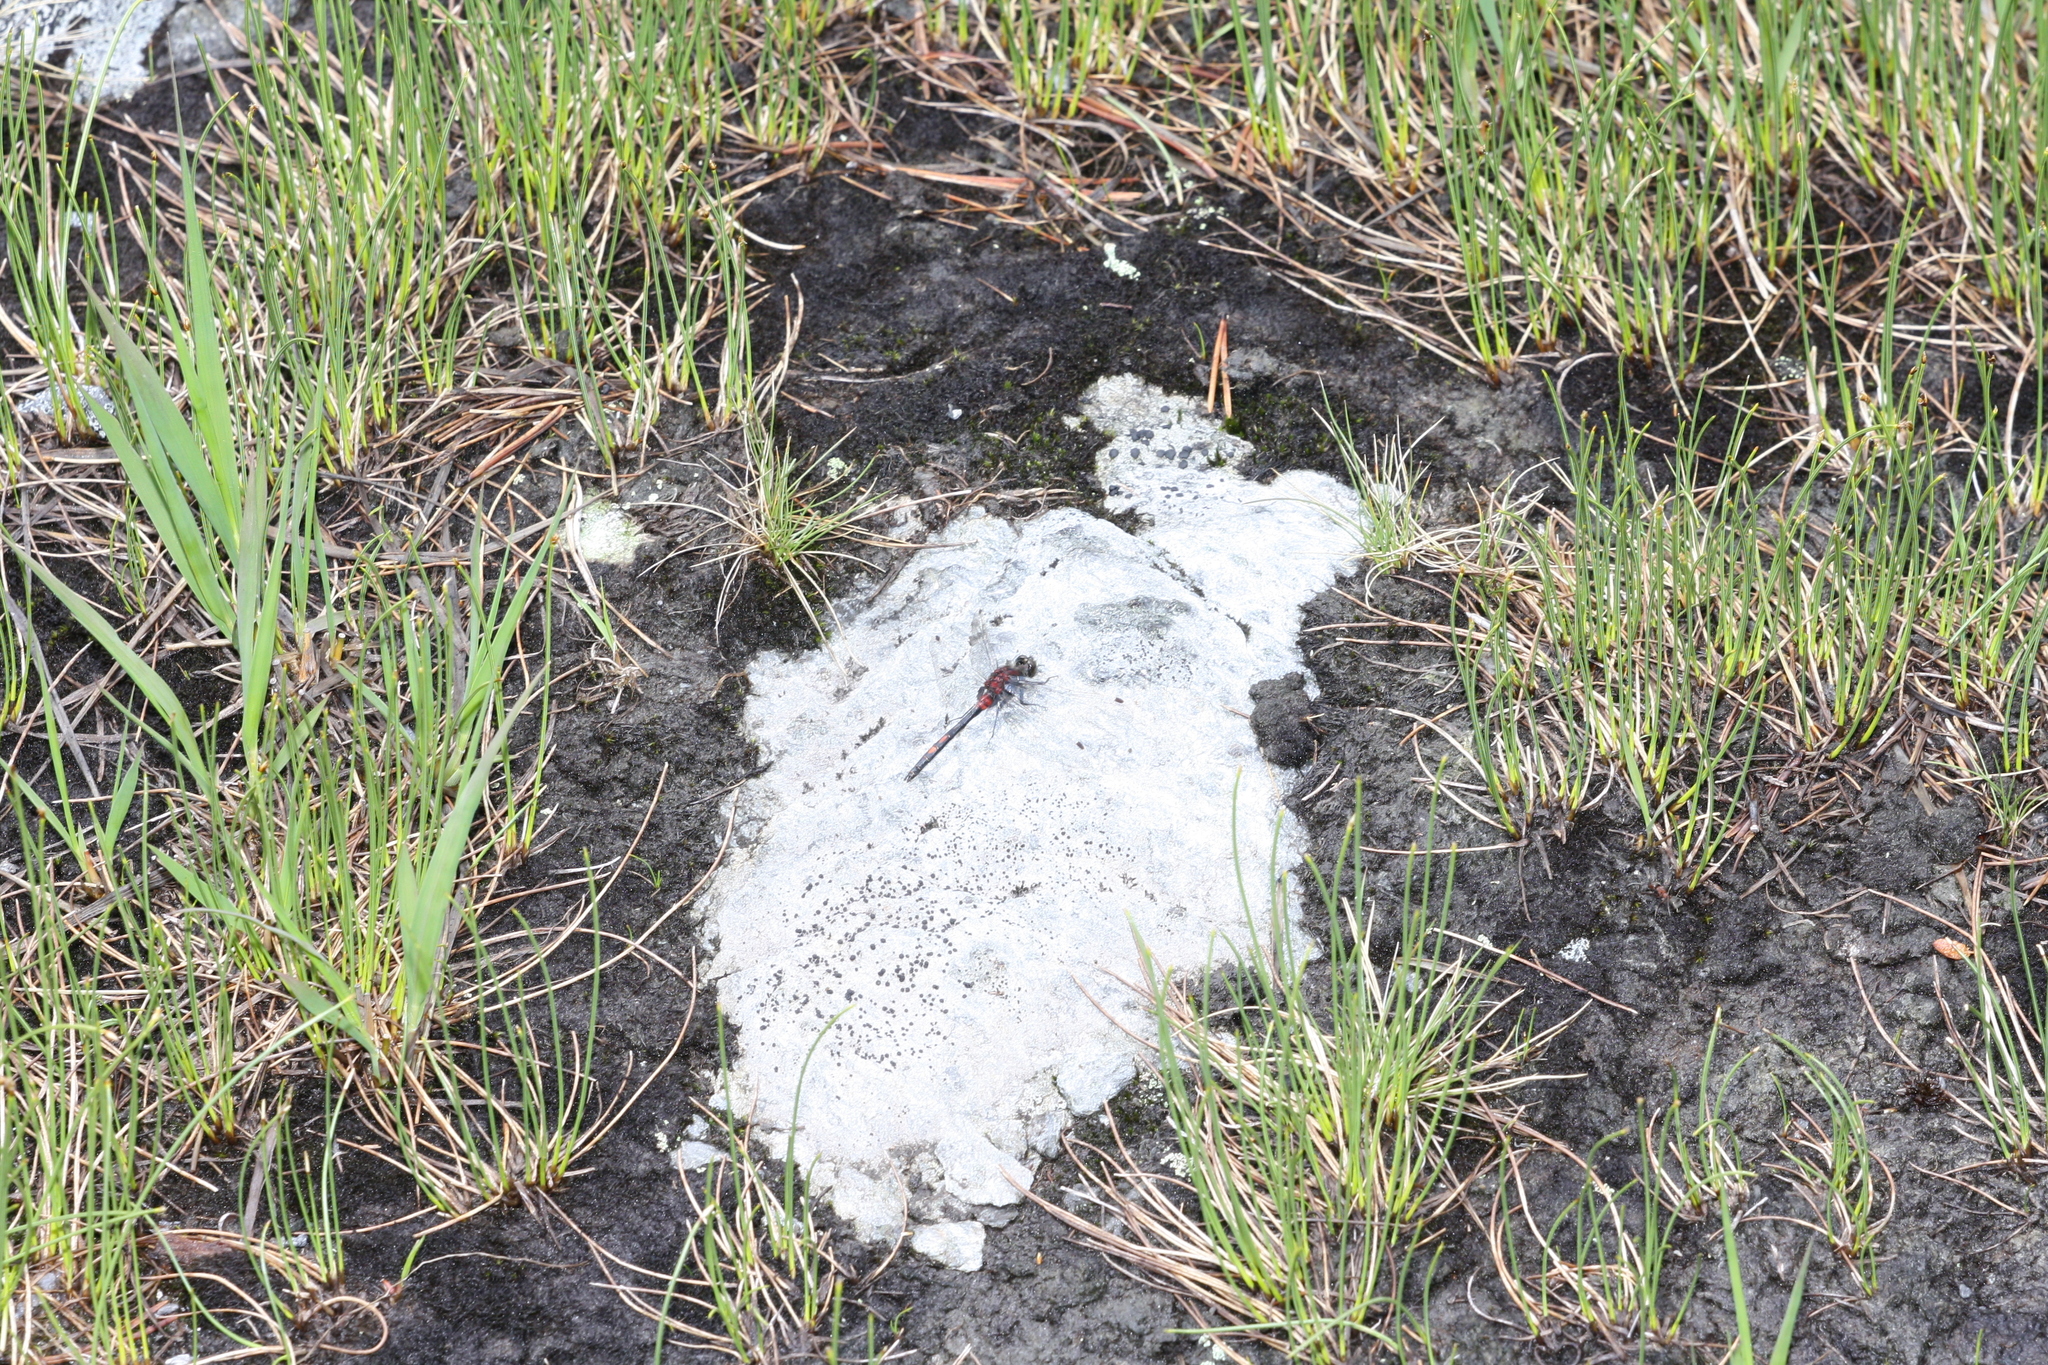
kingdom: Animalia
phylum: Arthropoda
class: Insecta
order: Odonata
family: Libellulidae
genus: Leucorrhinia
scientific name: Leucorrhinia dubia
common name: White-faced darter
